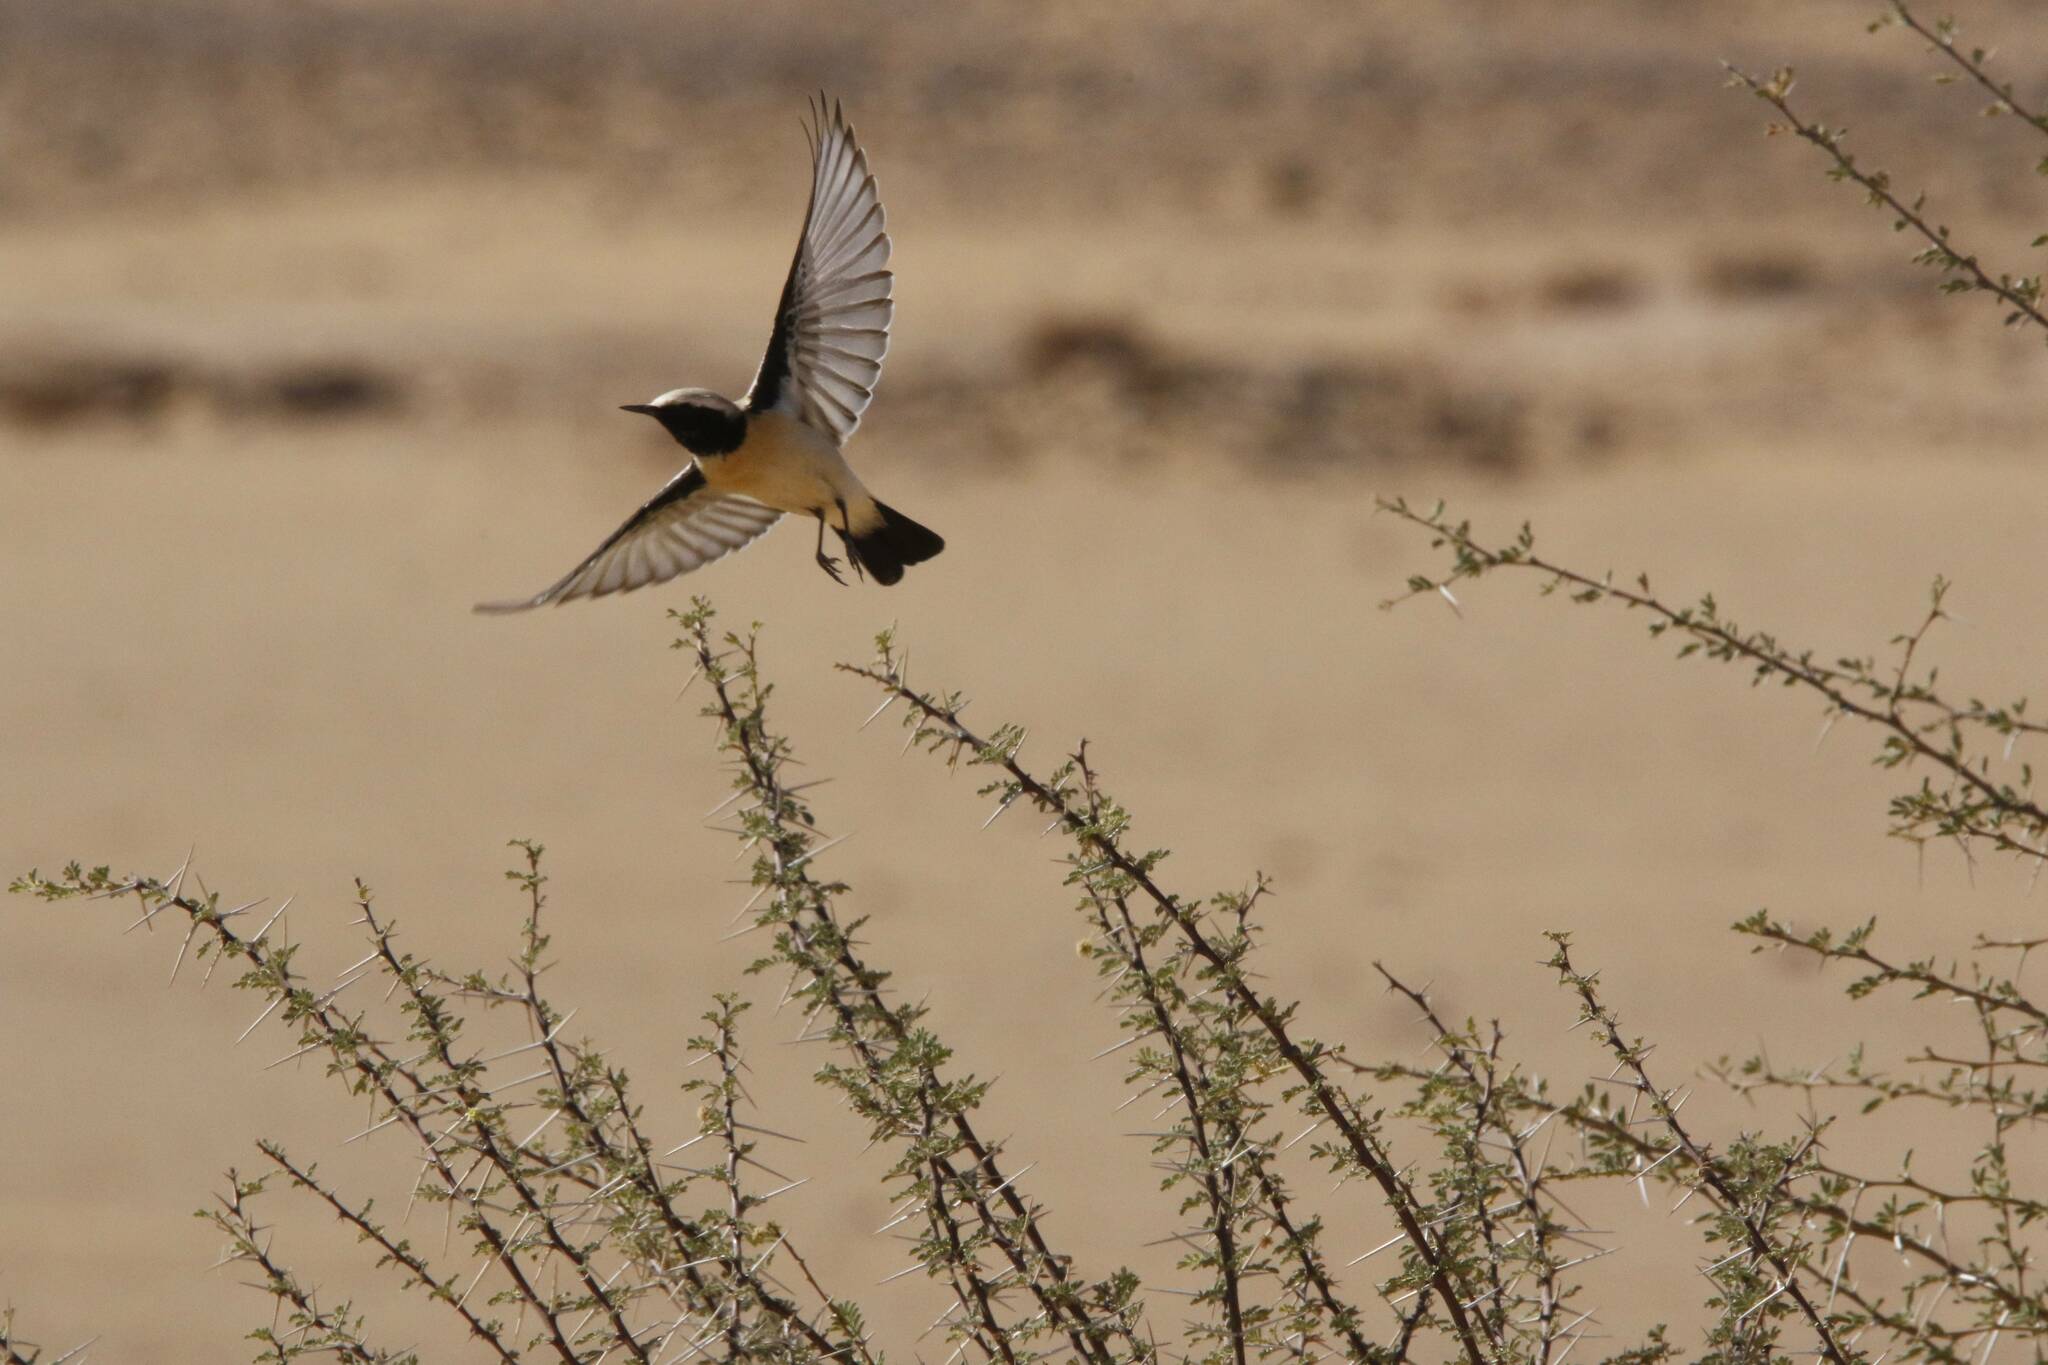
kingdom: Animalia
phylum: Chordata
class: Aves
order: Passeriformes
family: Muscicapidae
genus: Oenanthe
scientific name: Oenanthe deserti
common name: Desert wheatear
